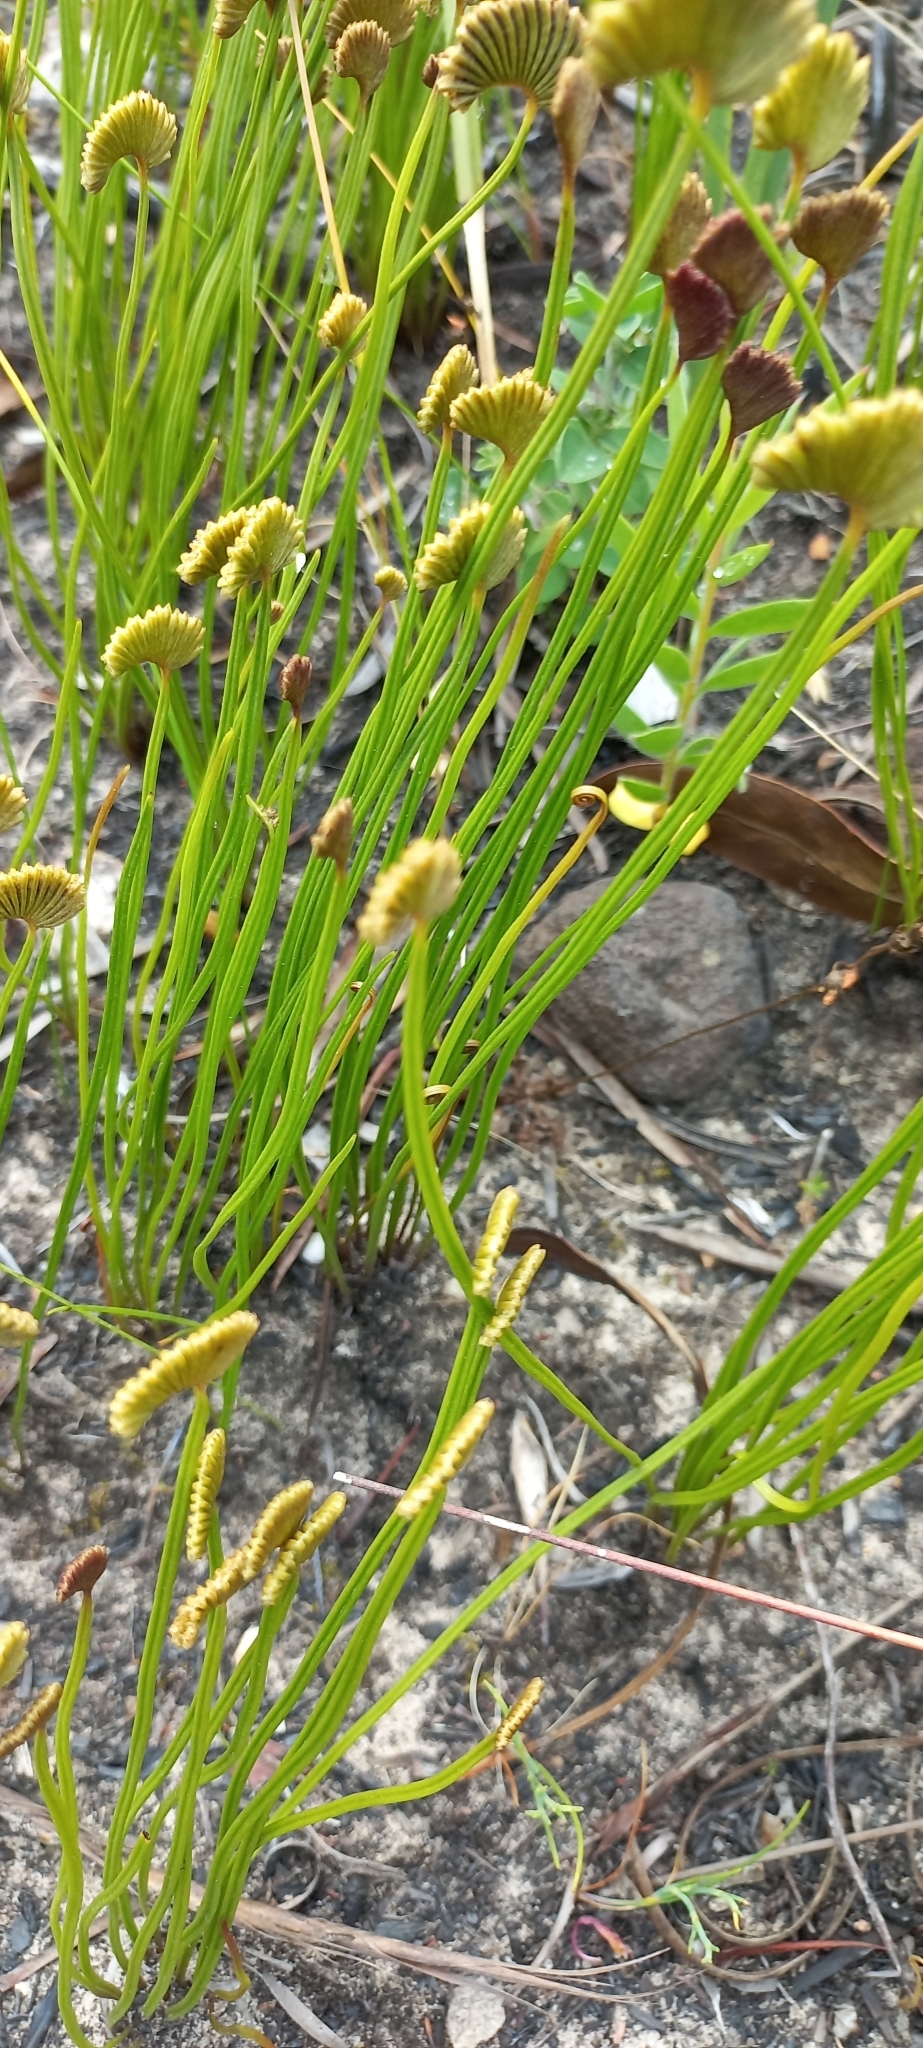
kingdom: Plantae
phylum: Tracheophyta
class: Polypodiopsida
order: Schizaeales
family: Schizaeaceae
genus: Schizaea
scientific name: Schizaea pectinata
